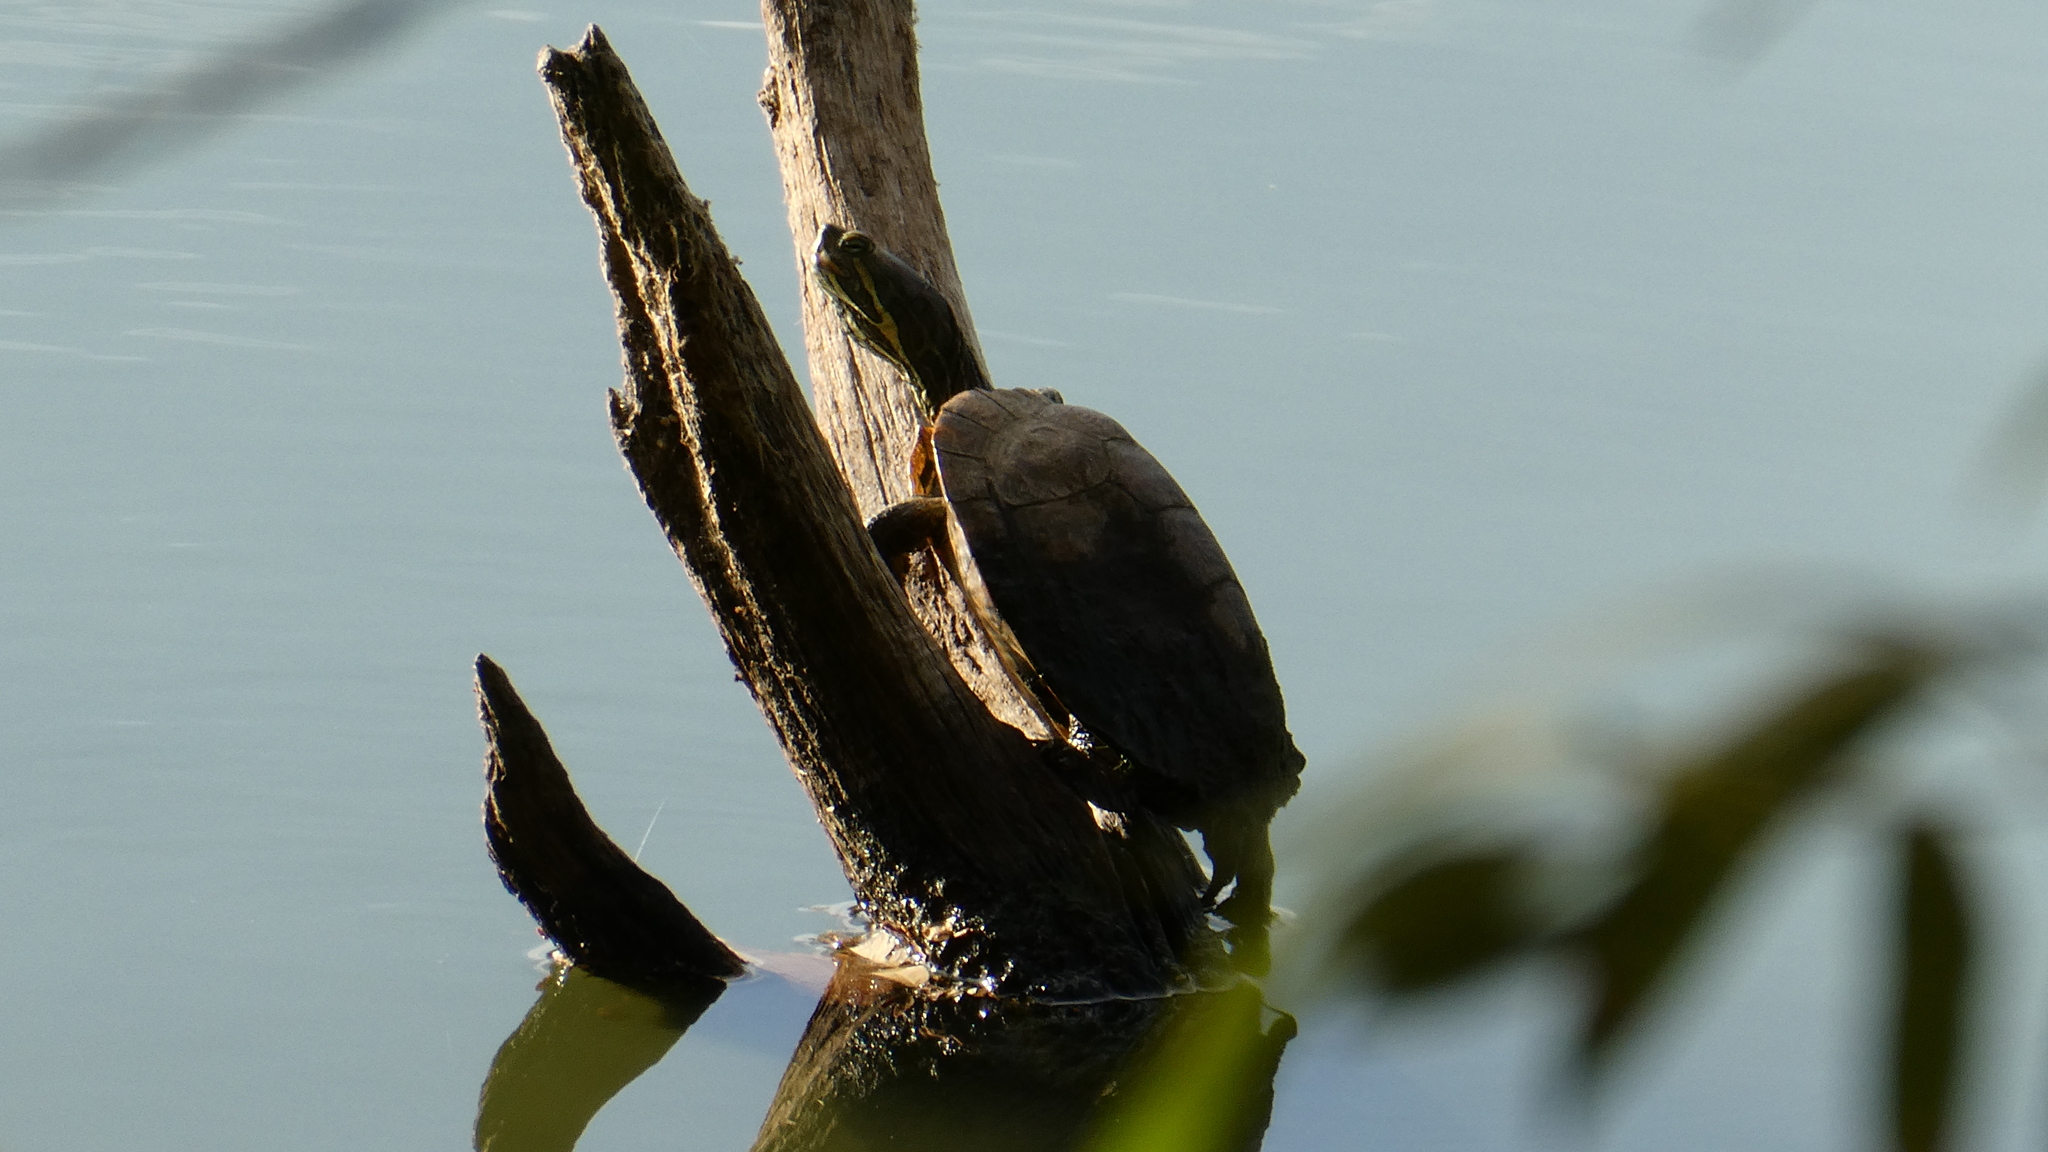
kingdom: Animalia
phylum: Chordata
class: Testudines
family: Emydidae
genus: Trachemys
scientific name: Trachemys scripta
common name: Slider
